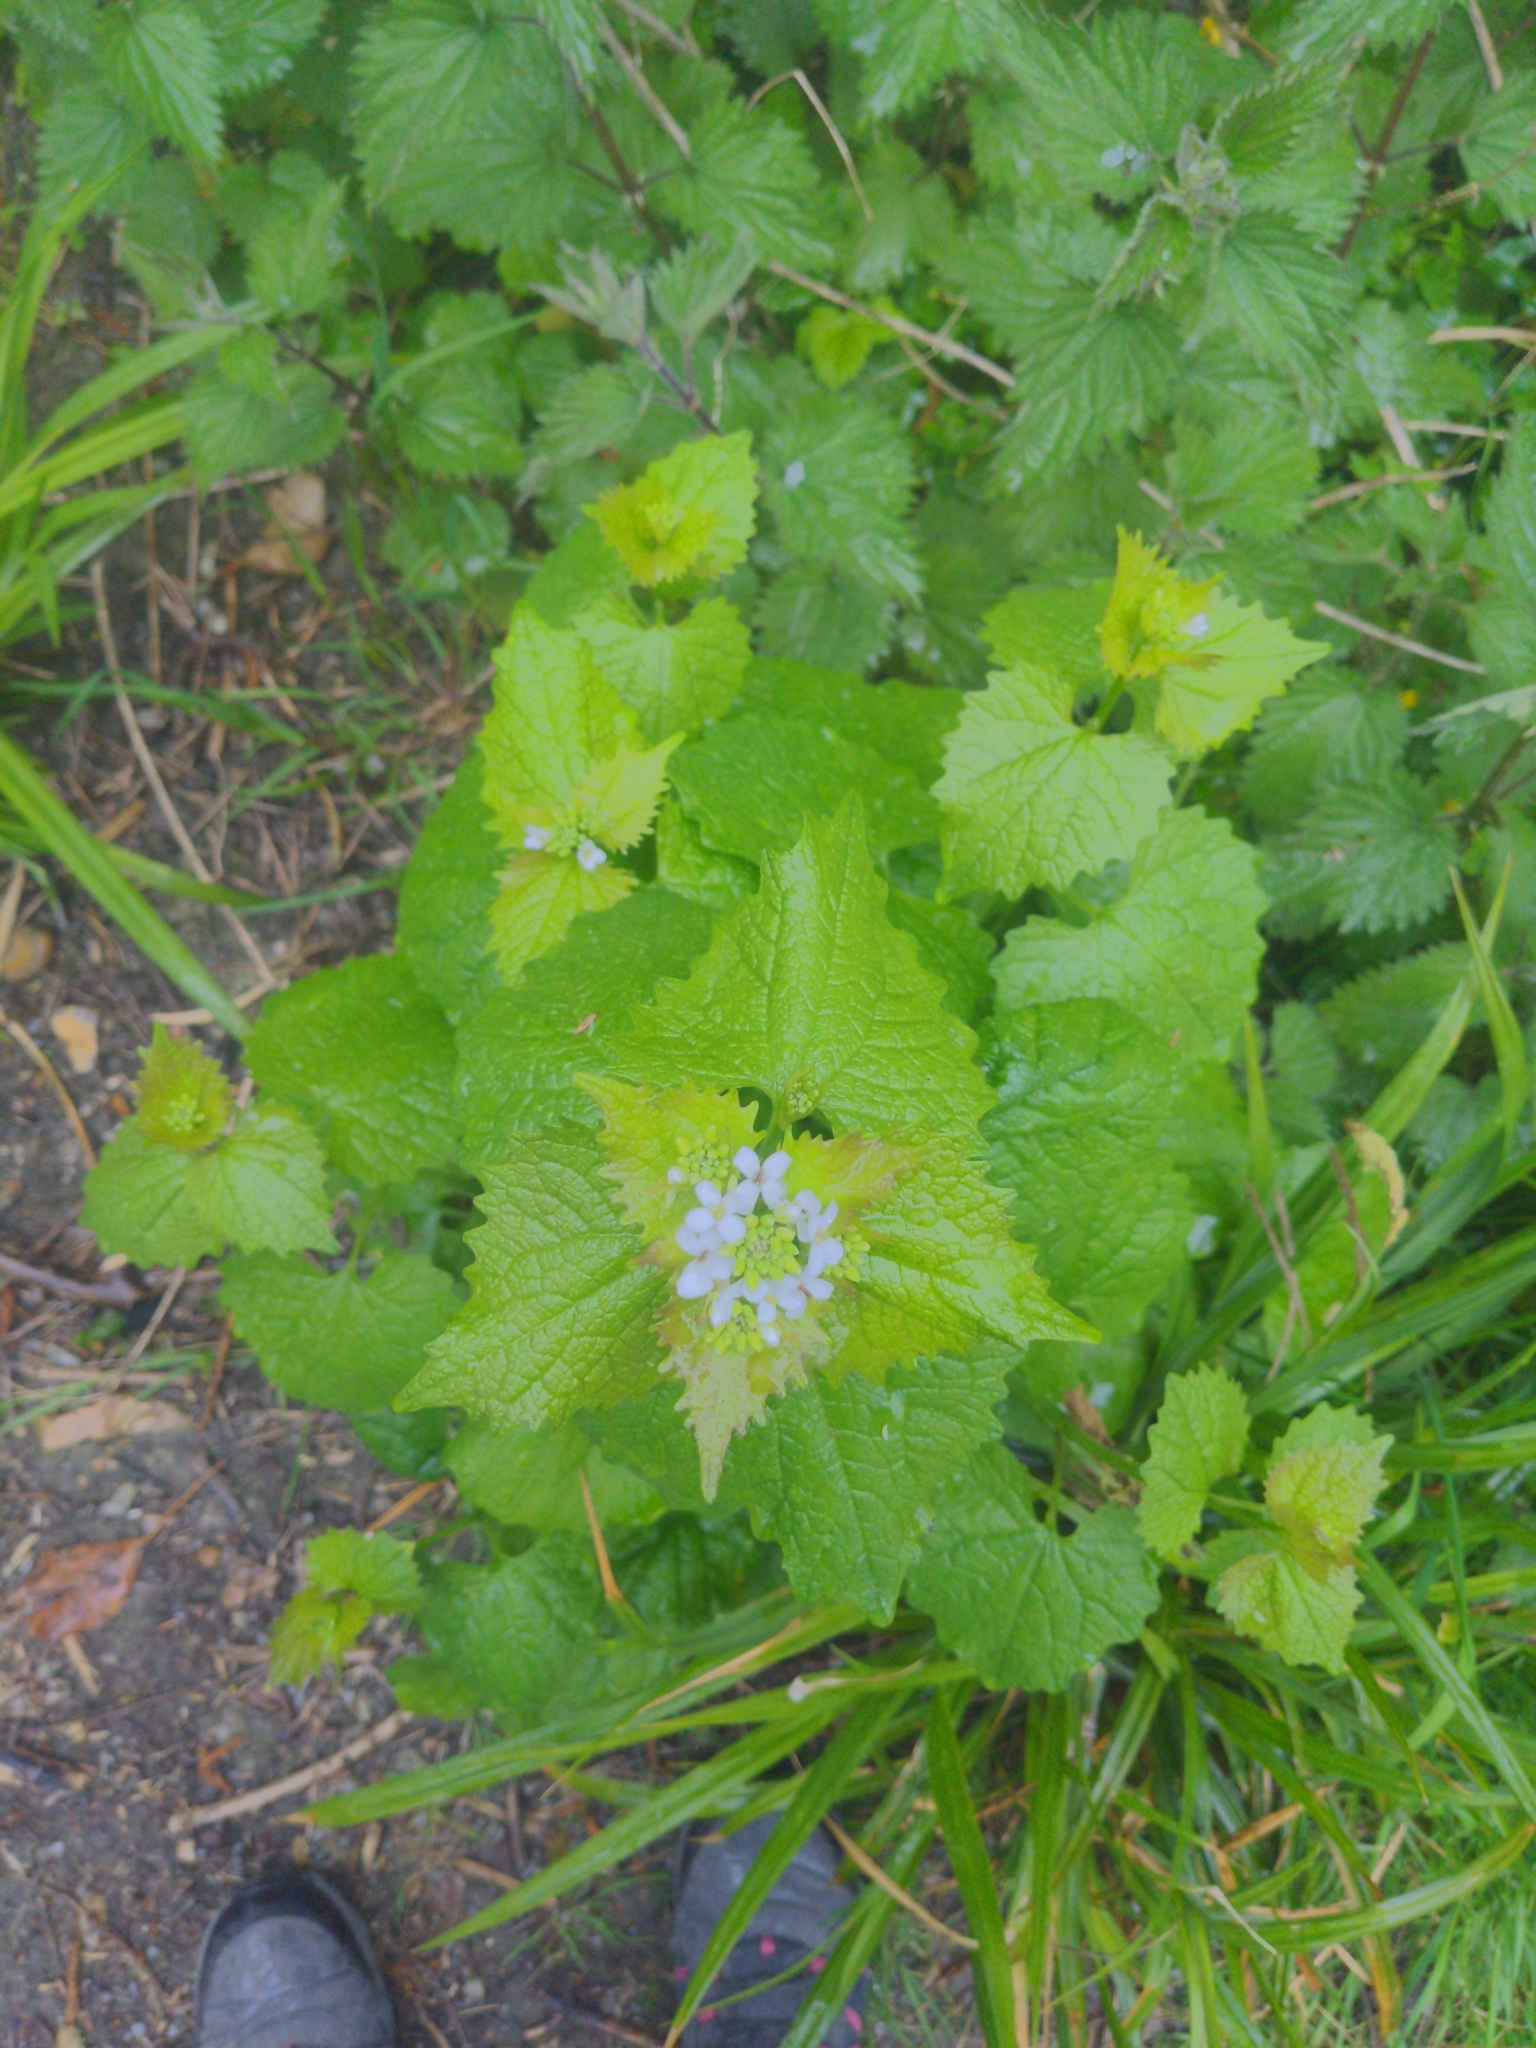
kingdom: Plantae
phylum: Tracheophyta
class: Magnoliopsida
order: Brassicales
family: Brassicaceae
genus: Alliaria
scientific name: Alliaria petiolata
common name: Garlic mustard
